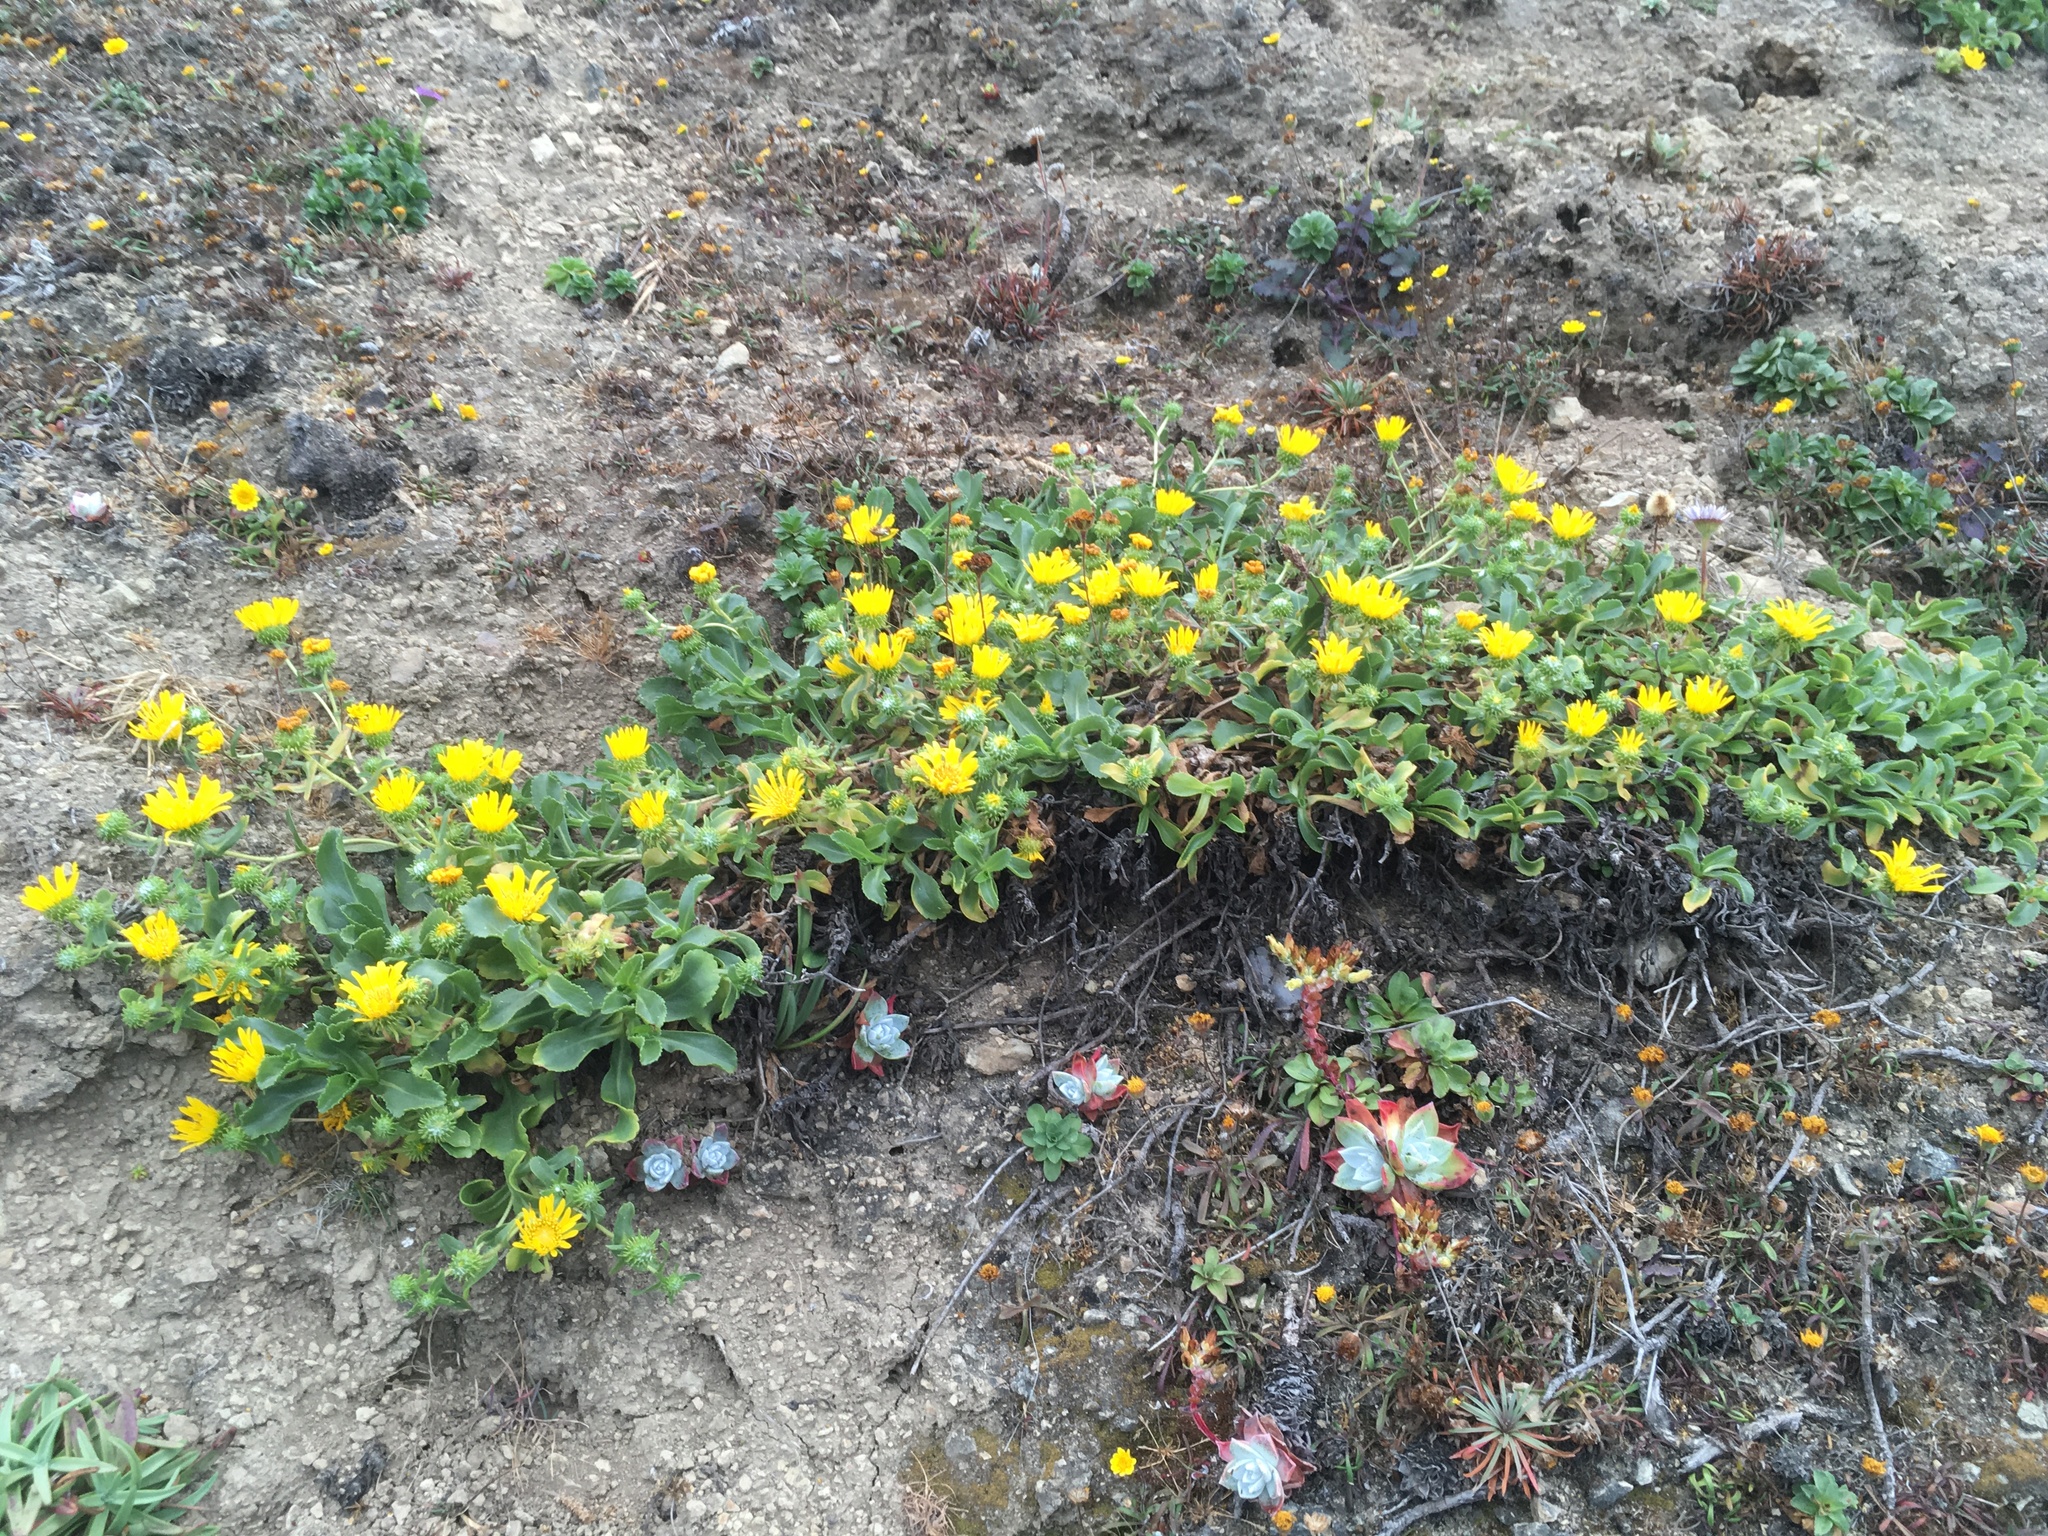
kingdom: Plantae
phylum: Tracheophyta
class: Magnoliopsida
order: Asterales
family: Asteraceae
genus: Grindelia
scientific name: Grindelia hirsutula
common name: Hairy gumweed
